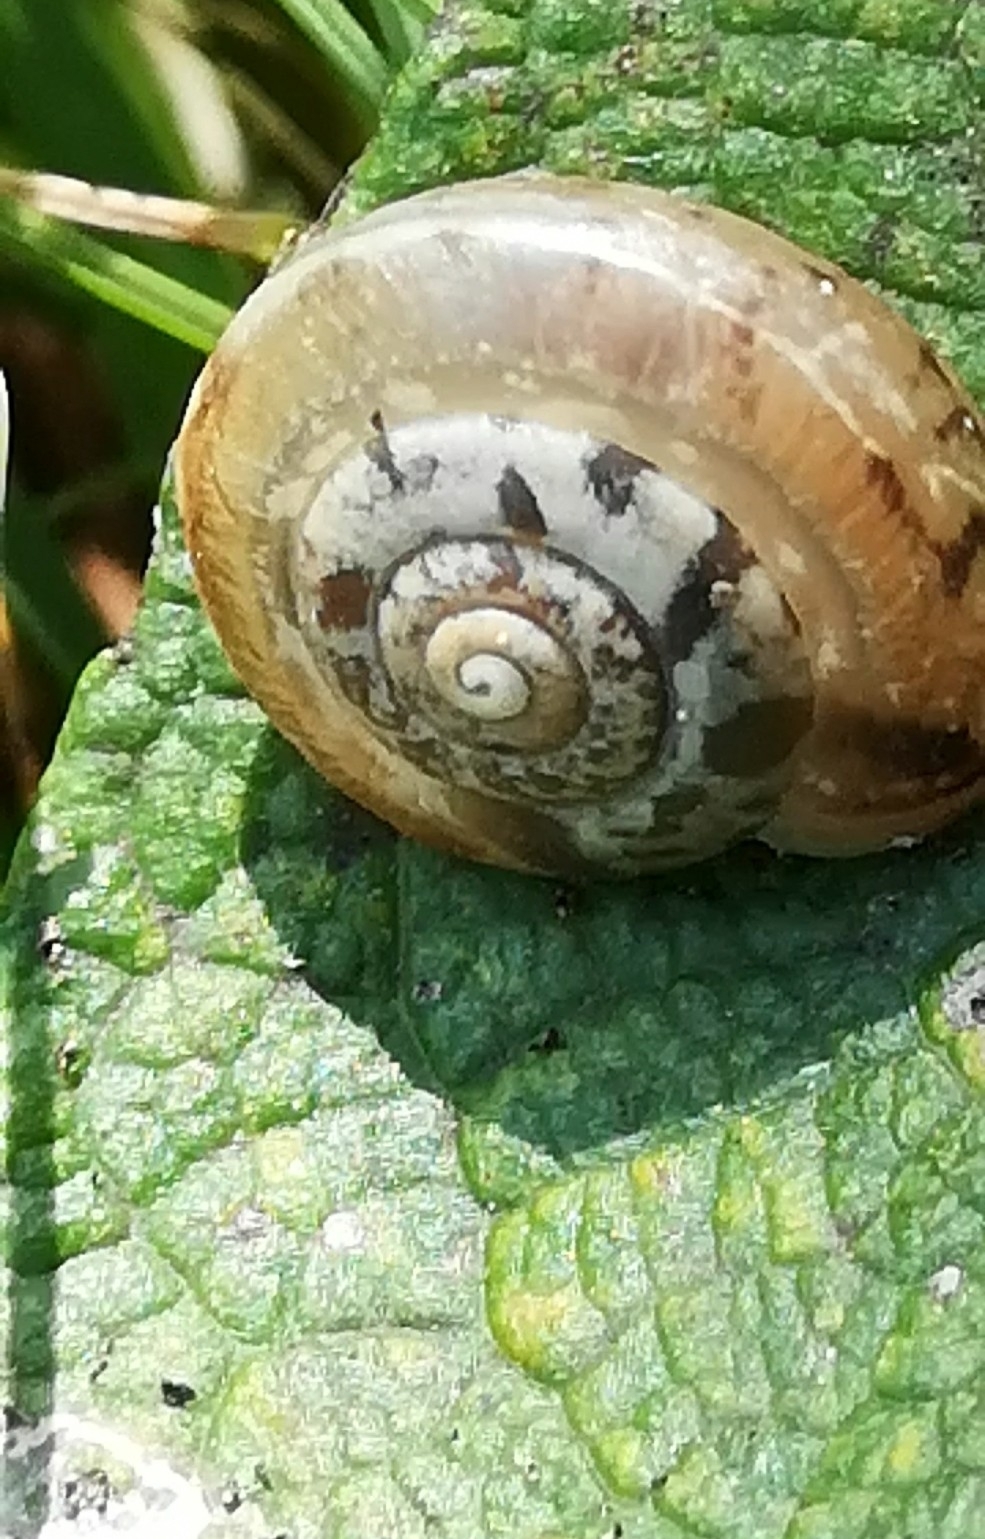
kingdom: Animalia
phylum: Mollusca
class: Gastropoda
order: Stylommatophora
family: Hygromiidae
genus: Urticicola
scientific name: Urticicola umbrosus
